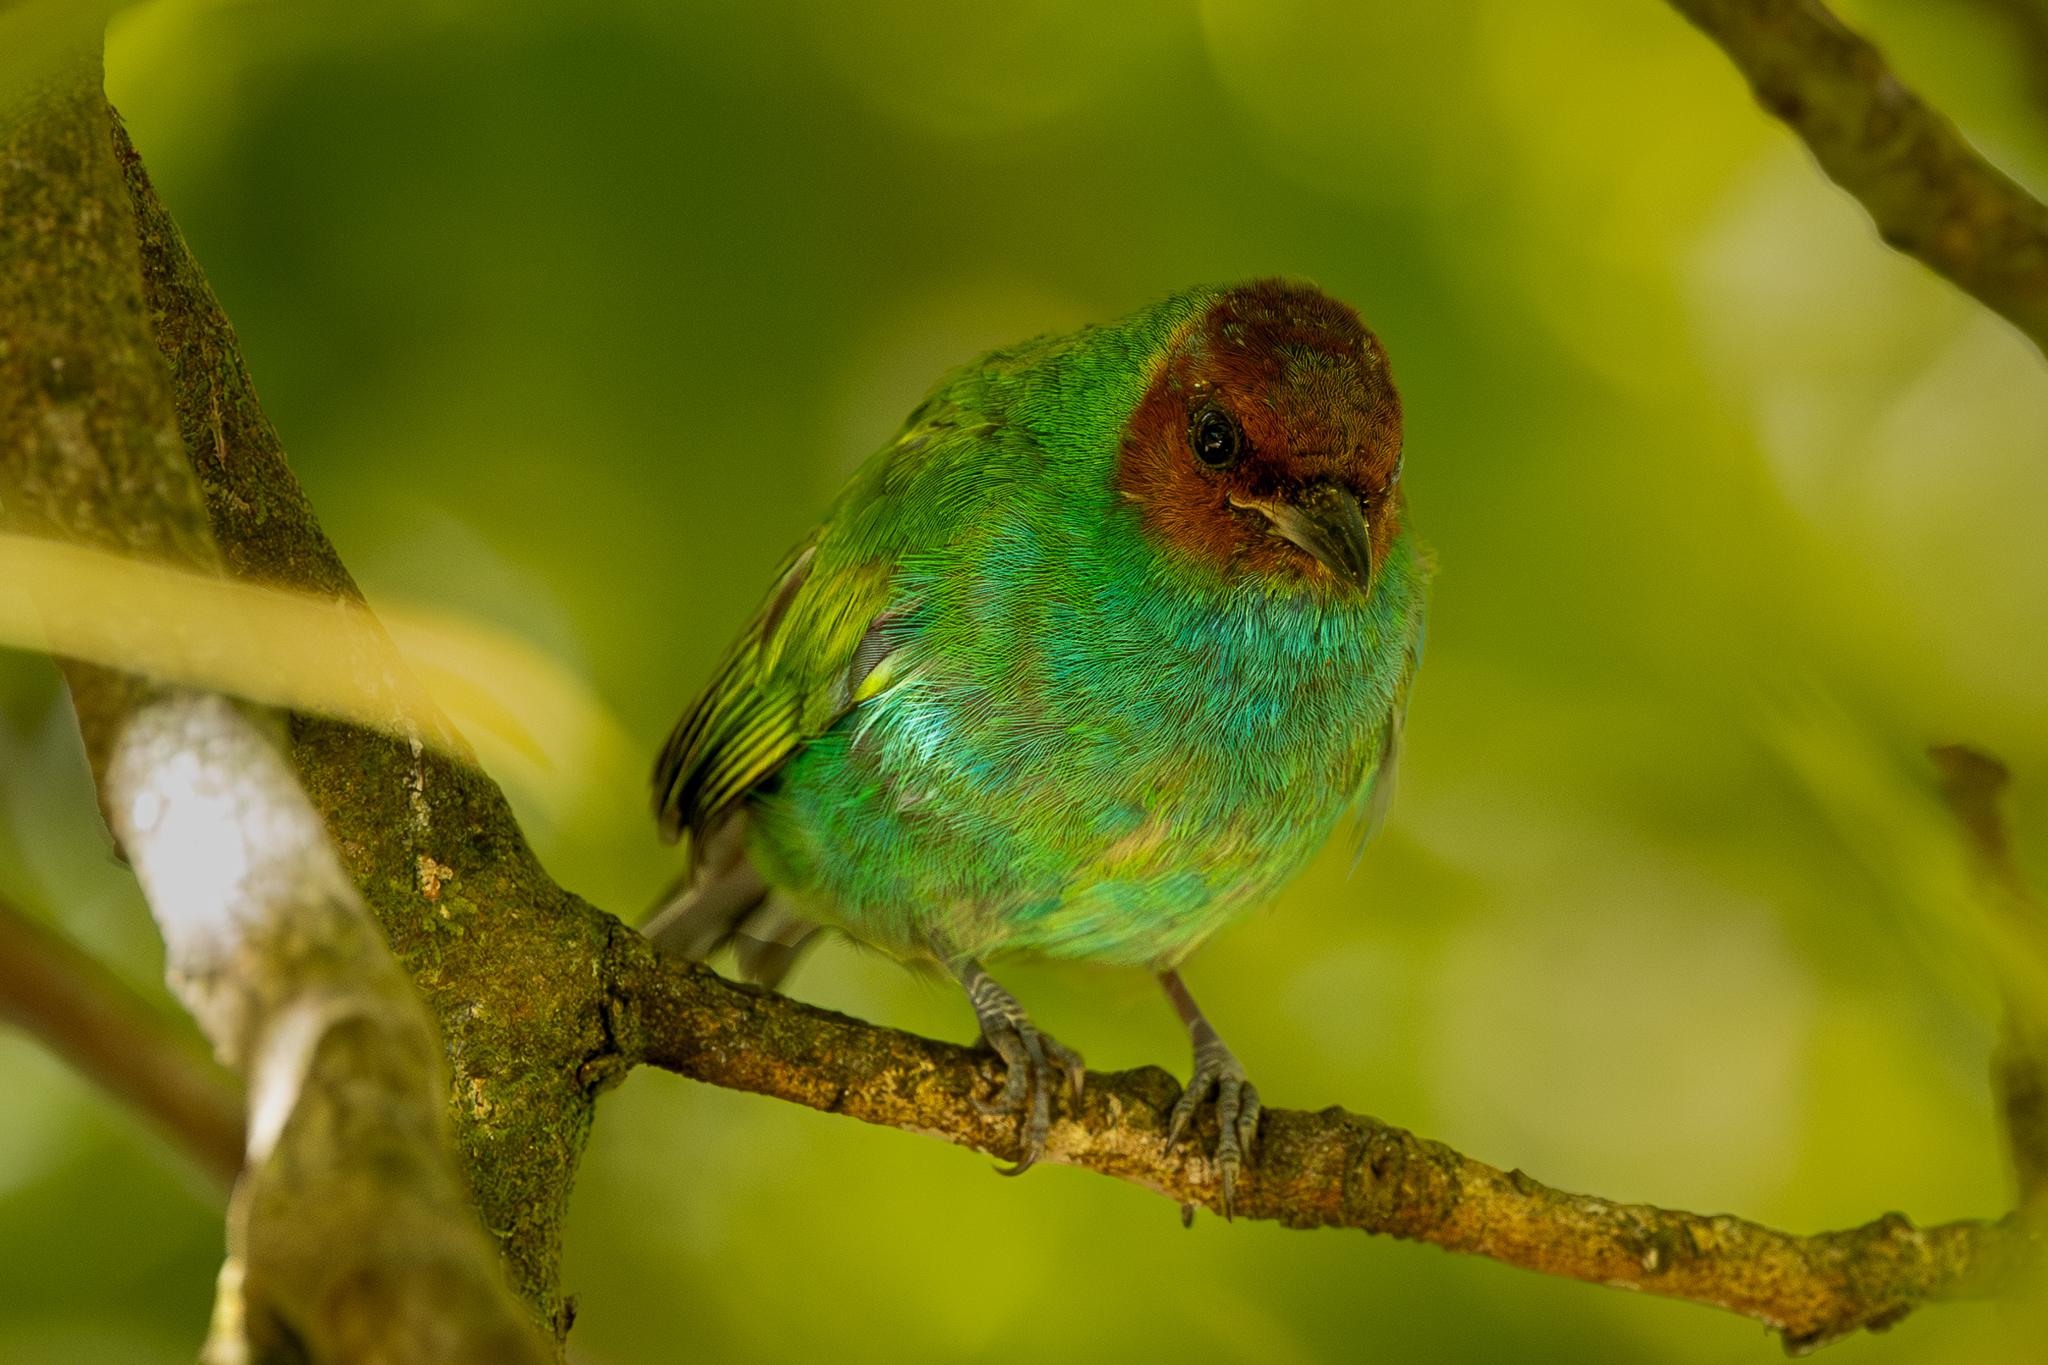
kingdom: Animalia
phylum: Chordata
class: Aves
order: Passeriformes
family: Thraupidae
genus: Tangara
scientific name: Tangara gyrola
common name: Bay-headed tanager
